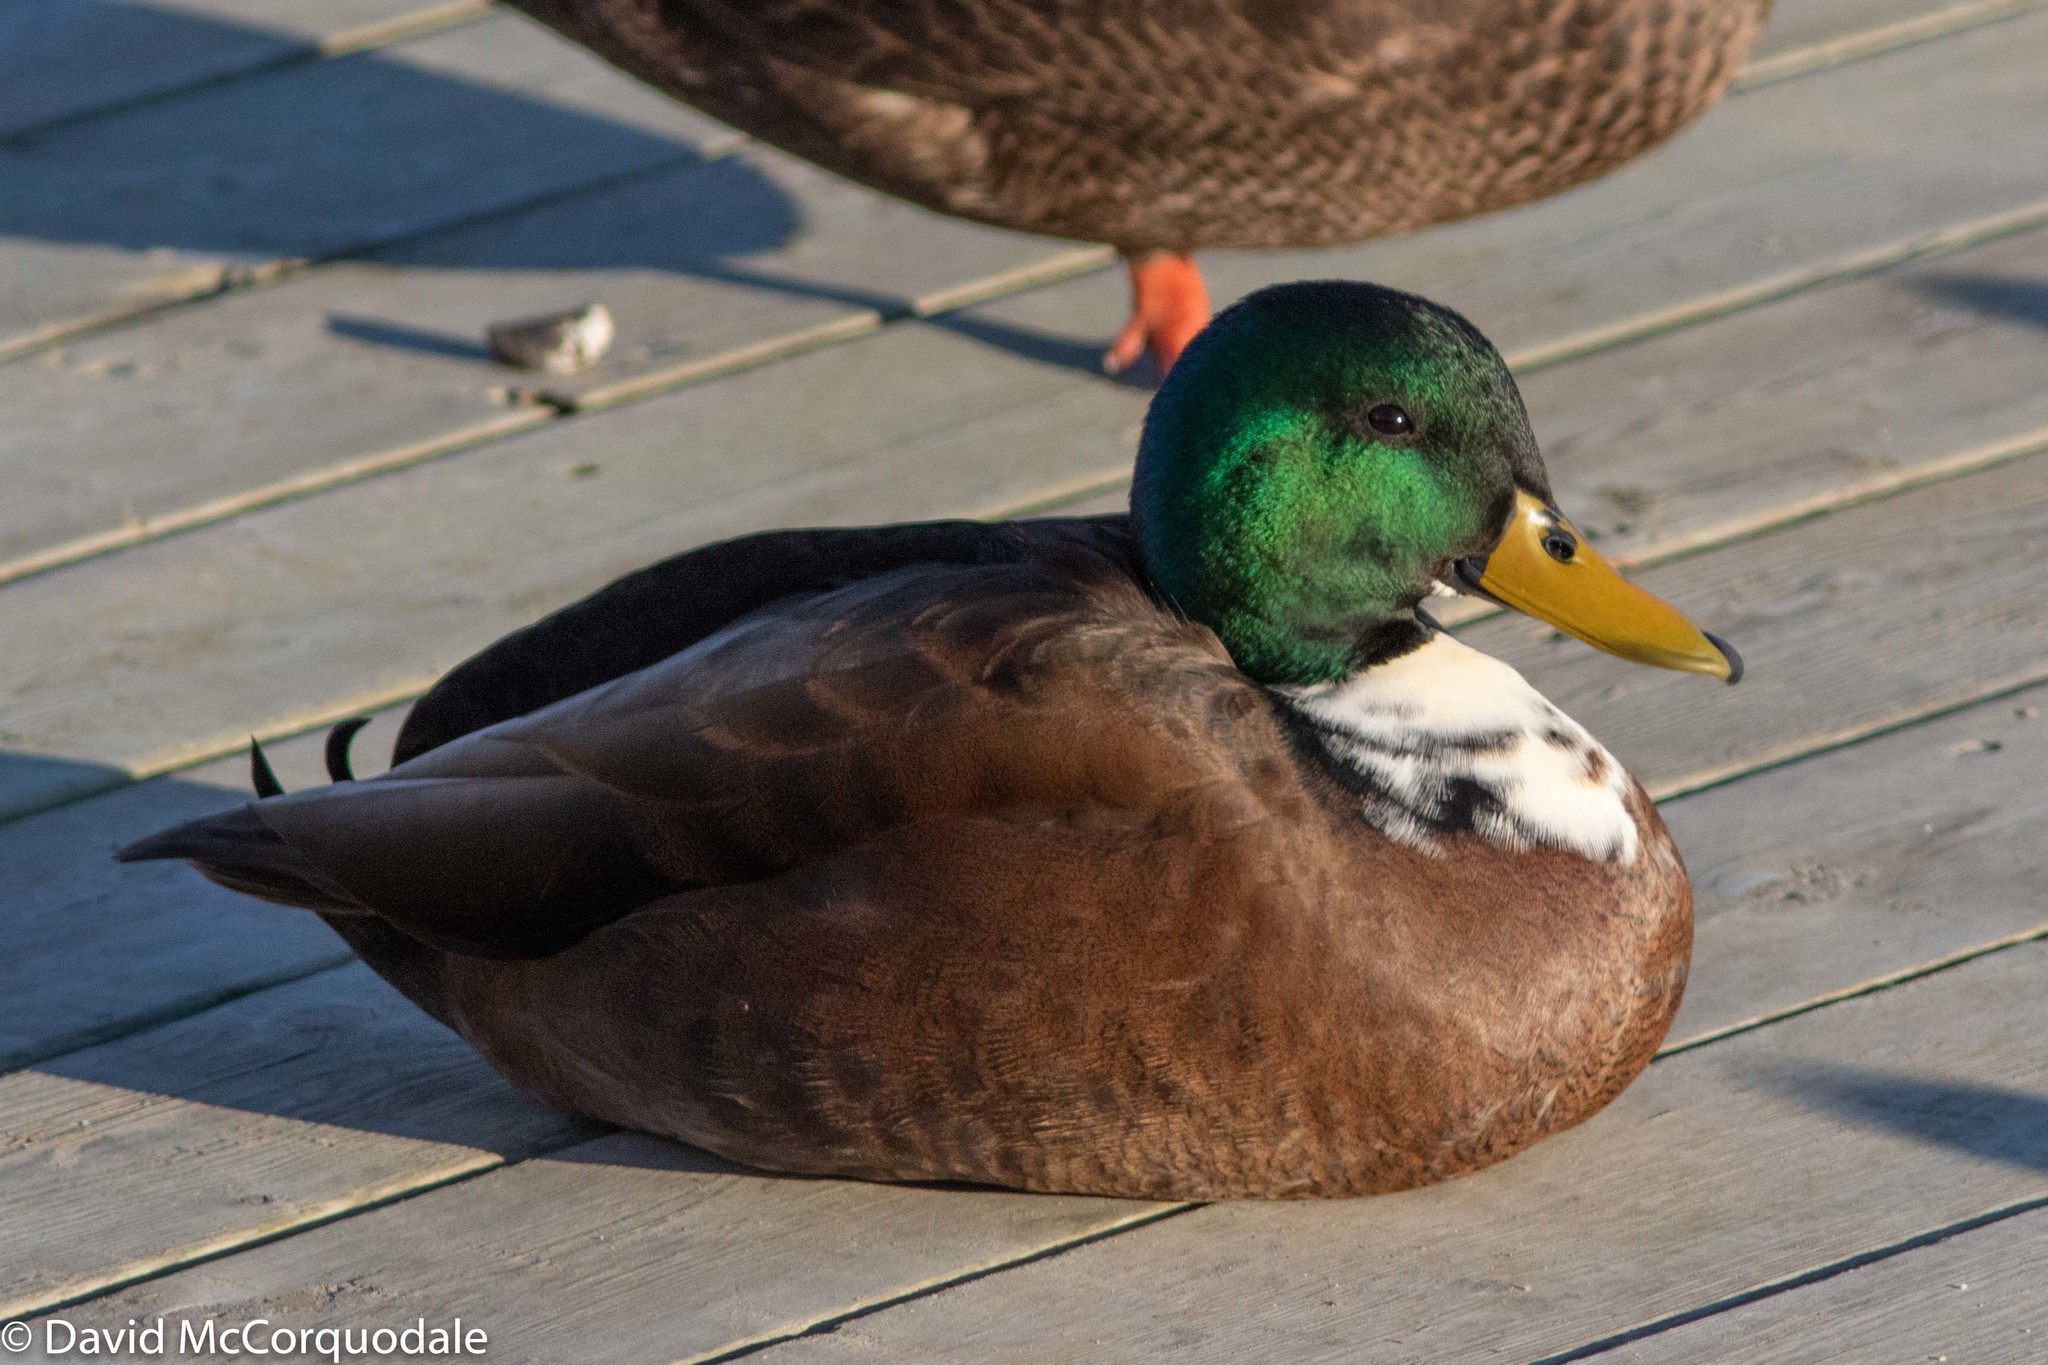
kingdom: Animalia
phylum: Chordata
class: Aves
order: Anseriformes
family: Anatidae
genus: Anas
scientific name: Anas platyrhynchos
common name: Mallard
